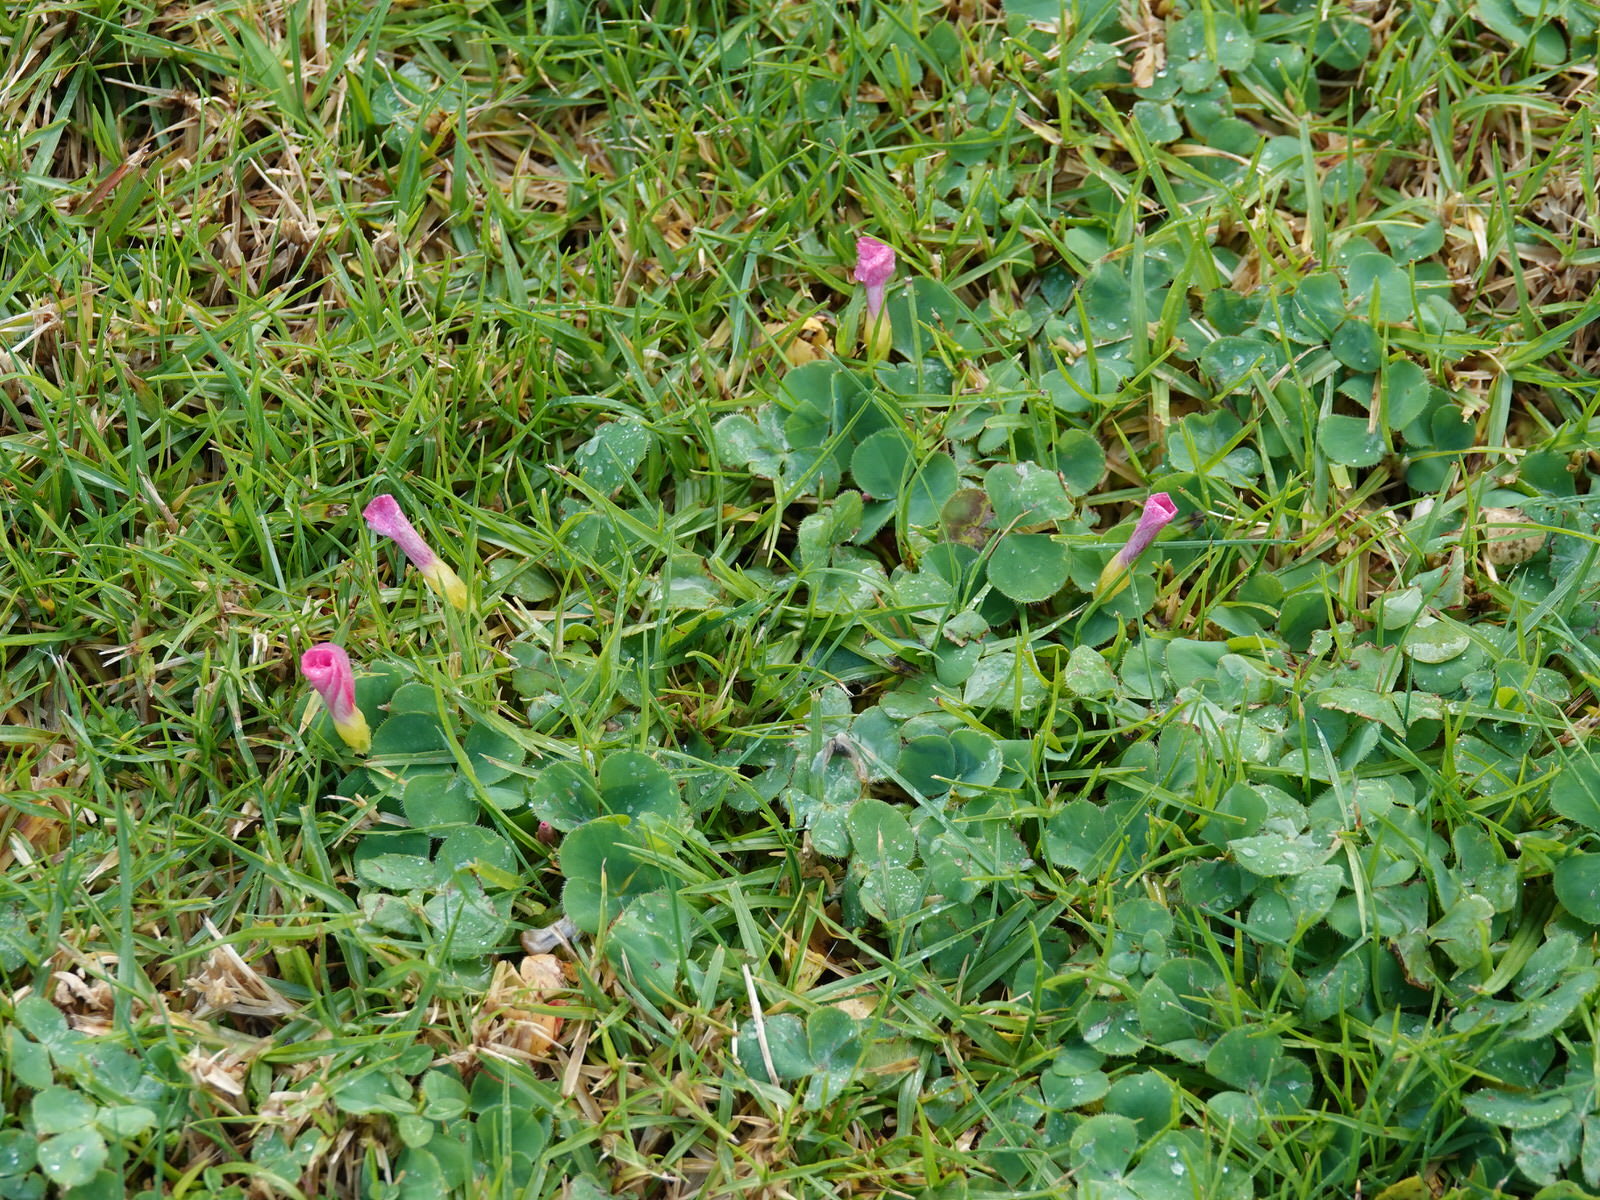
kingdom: Plantae
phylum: Tracheophyta
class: Magnoliopsida
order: Oxalidales
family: Oxalidaceae
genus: Oxalis
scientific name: Oxalis purpurea
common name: Purple woodsorrel
